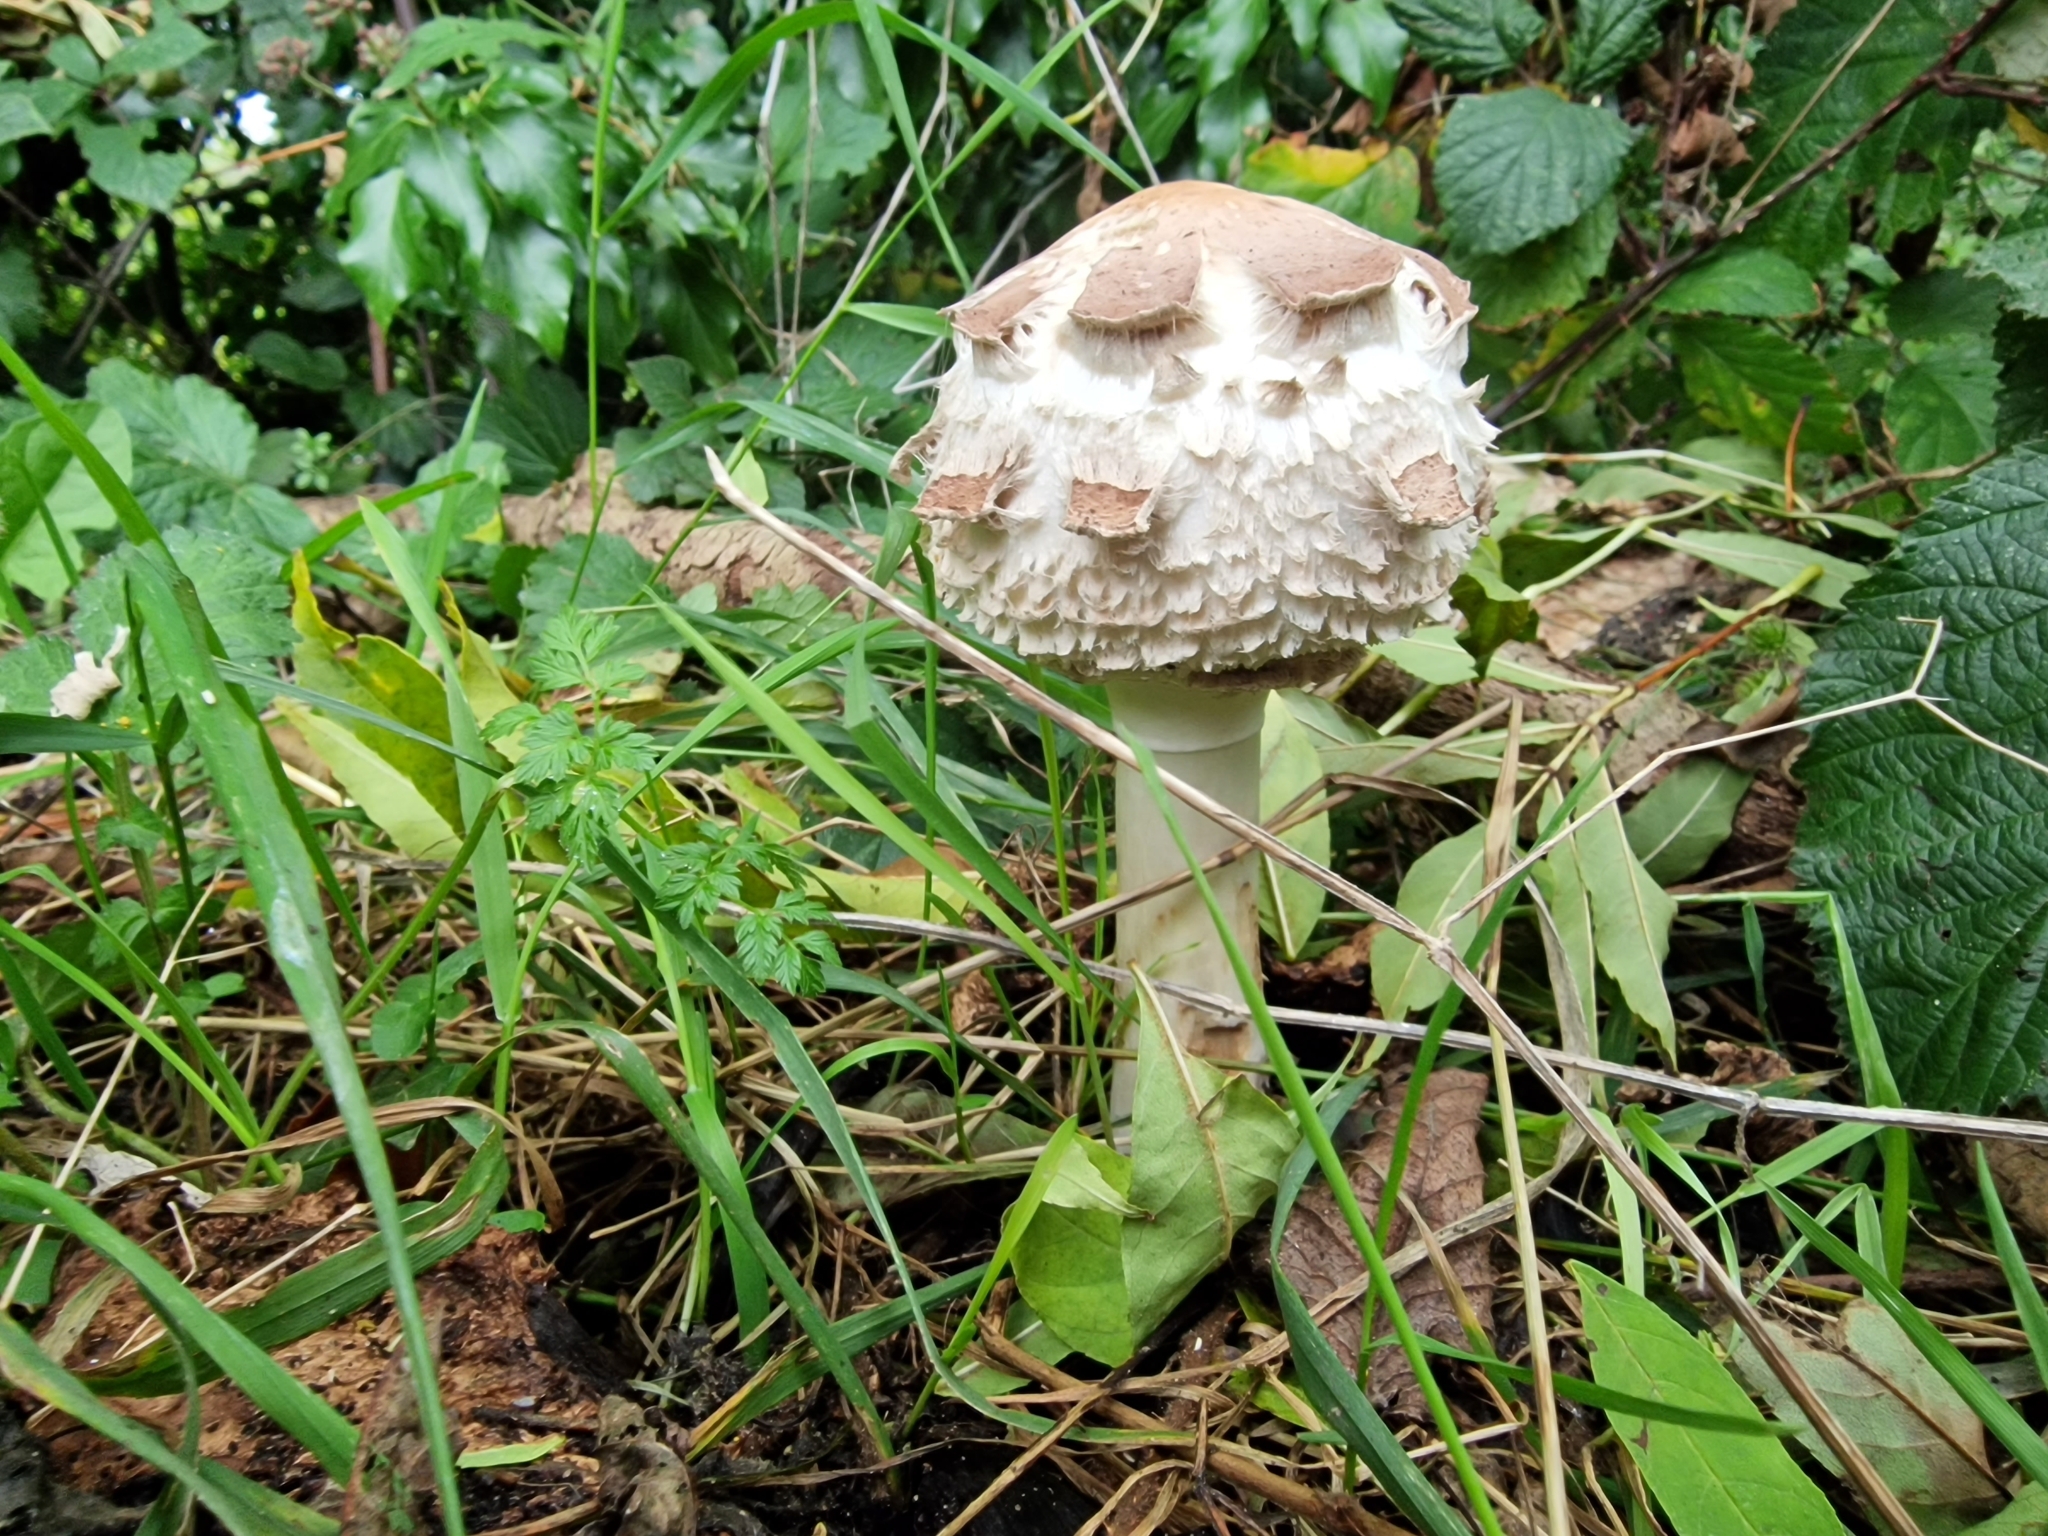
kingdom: Fungi
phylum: Basidiomycota
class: Agaricomycetes
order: Agaricales
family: Agaricaceae
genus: Chlorophyllum
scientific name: Chlorophyllum rhacodes
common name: Shaggy parasol
